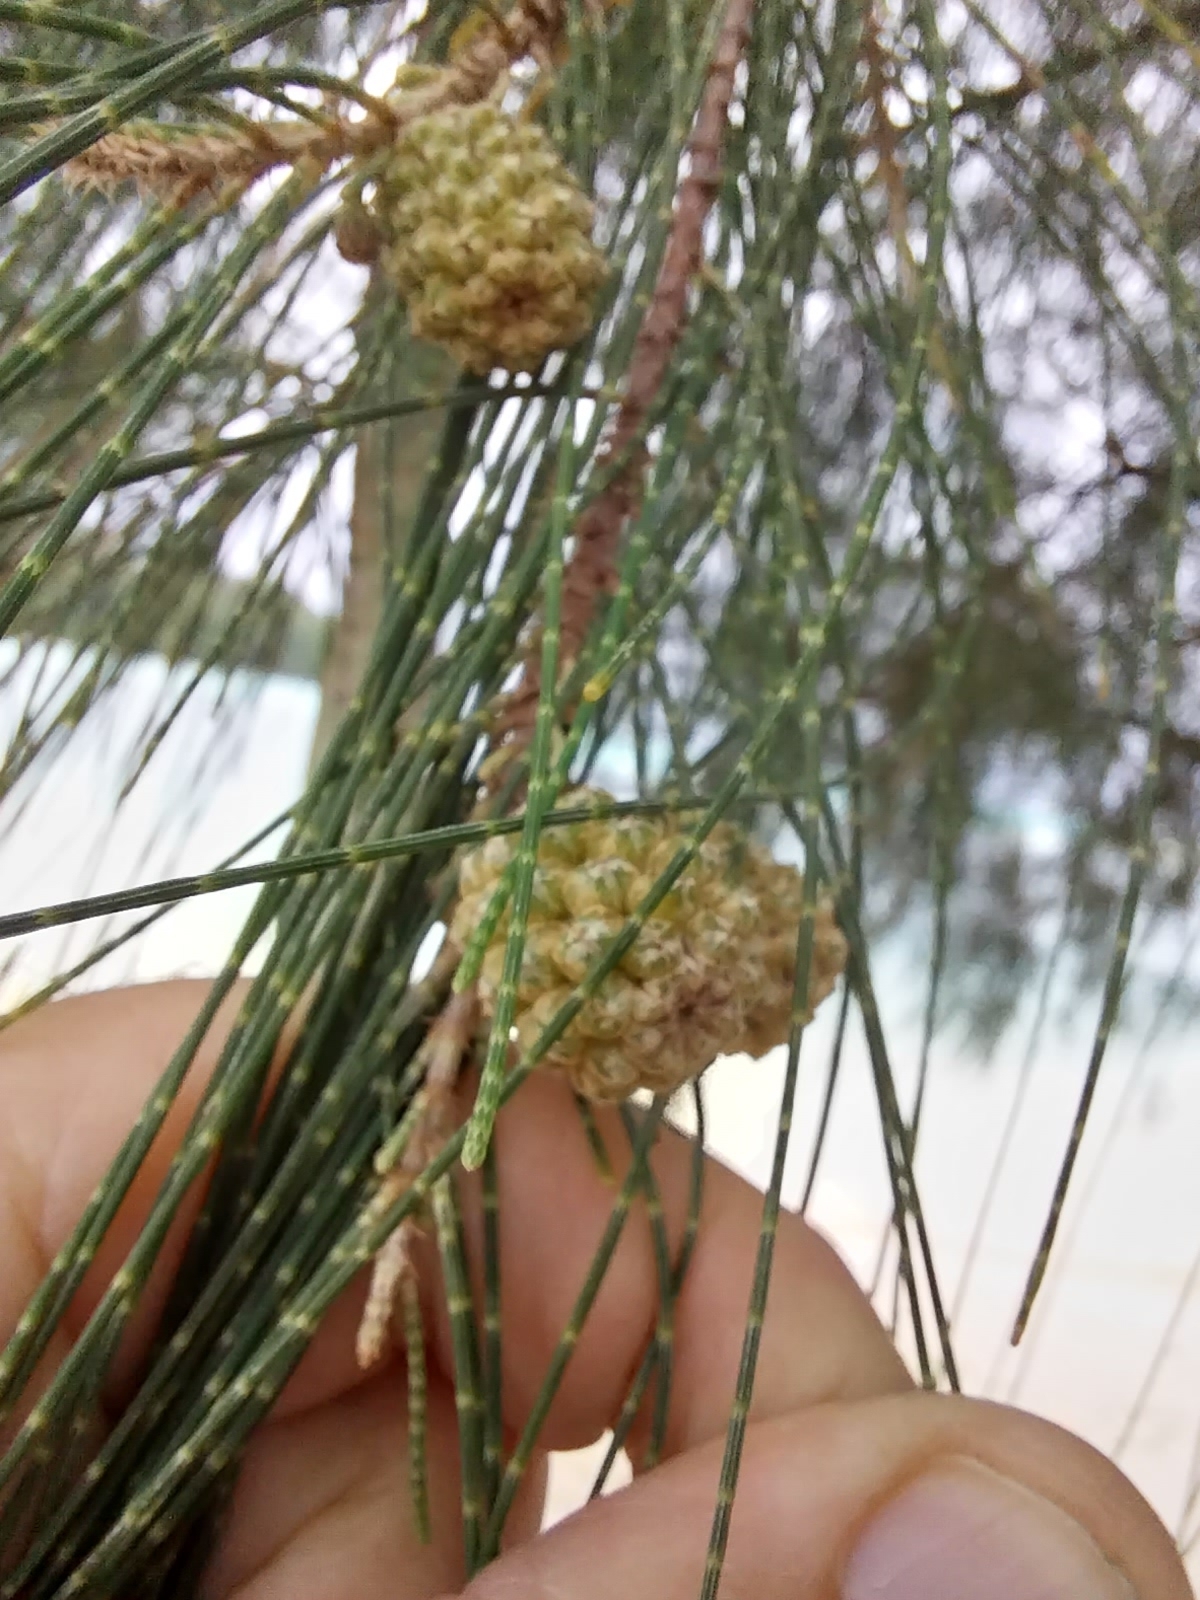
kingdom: Plantae
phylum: Tracheophyta
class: Magnoliopsida
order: Fagales
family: Casuarinaceae
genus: Casuarina
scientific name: Casuarina equisetifolia
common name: Beach sheoak
